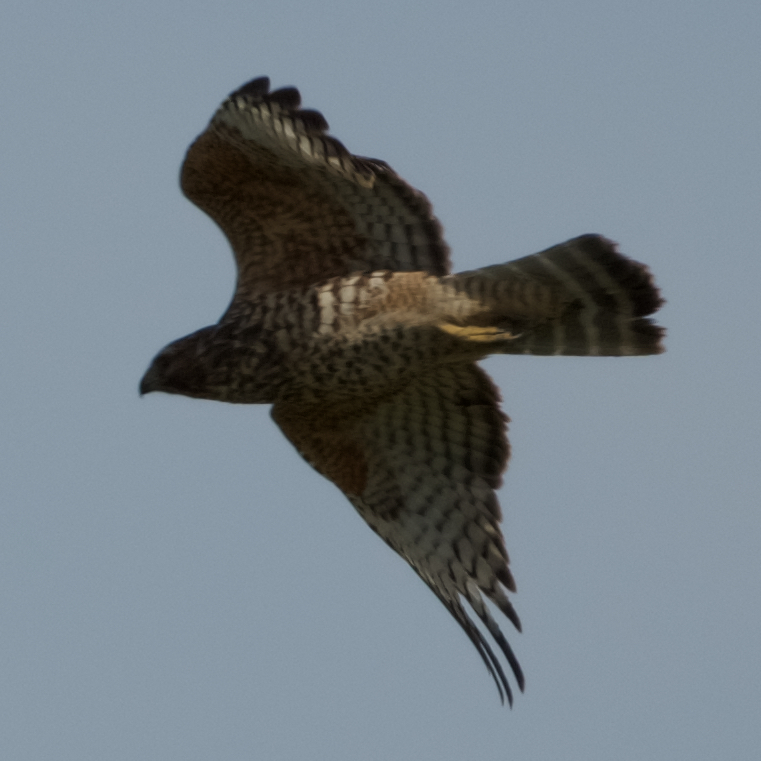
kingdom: Animalia
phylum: Chordata
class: Aves
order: Accipitriformes
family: Accipitridae
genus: Buteo
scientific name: Buteo lineatus
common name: Red-shouldered hawk
